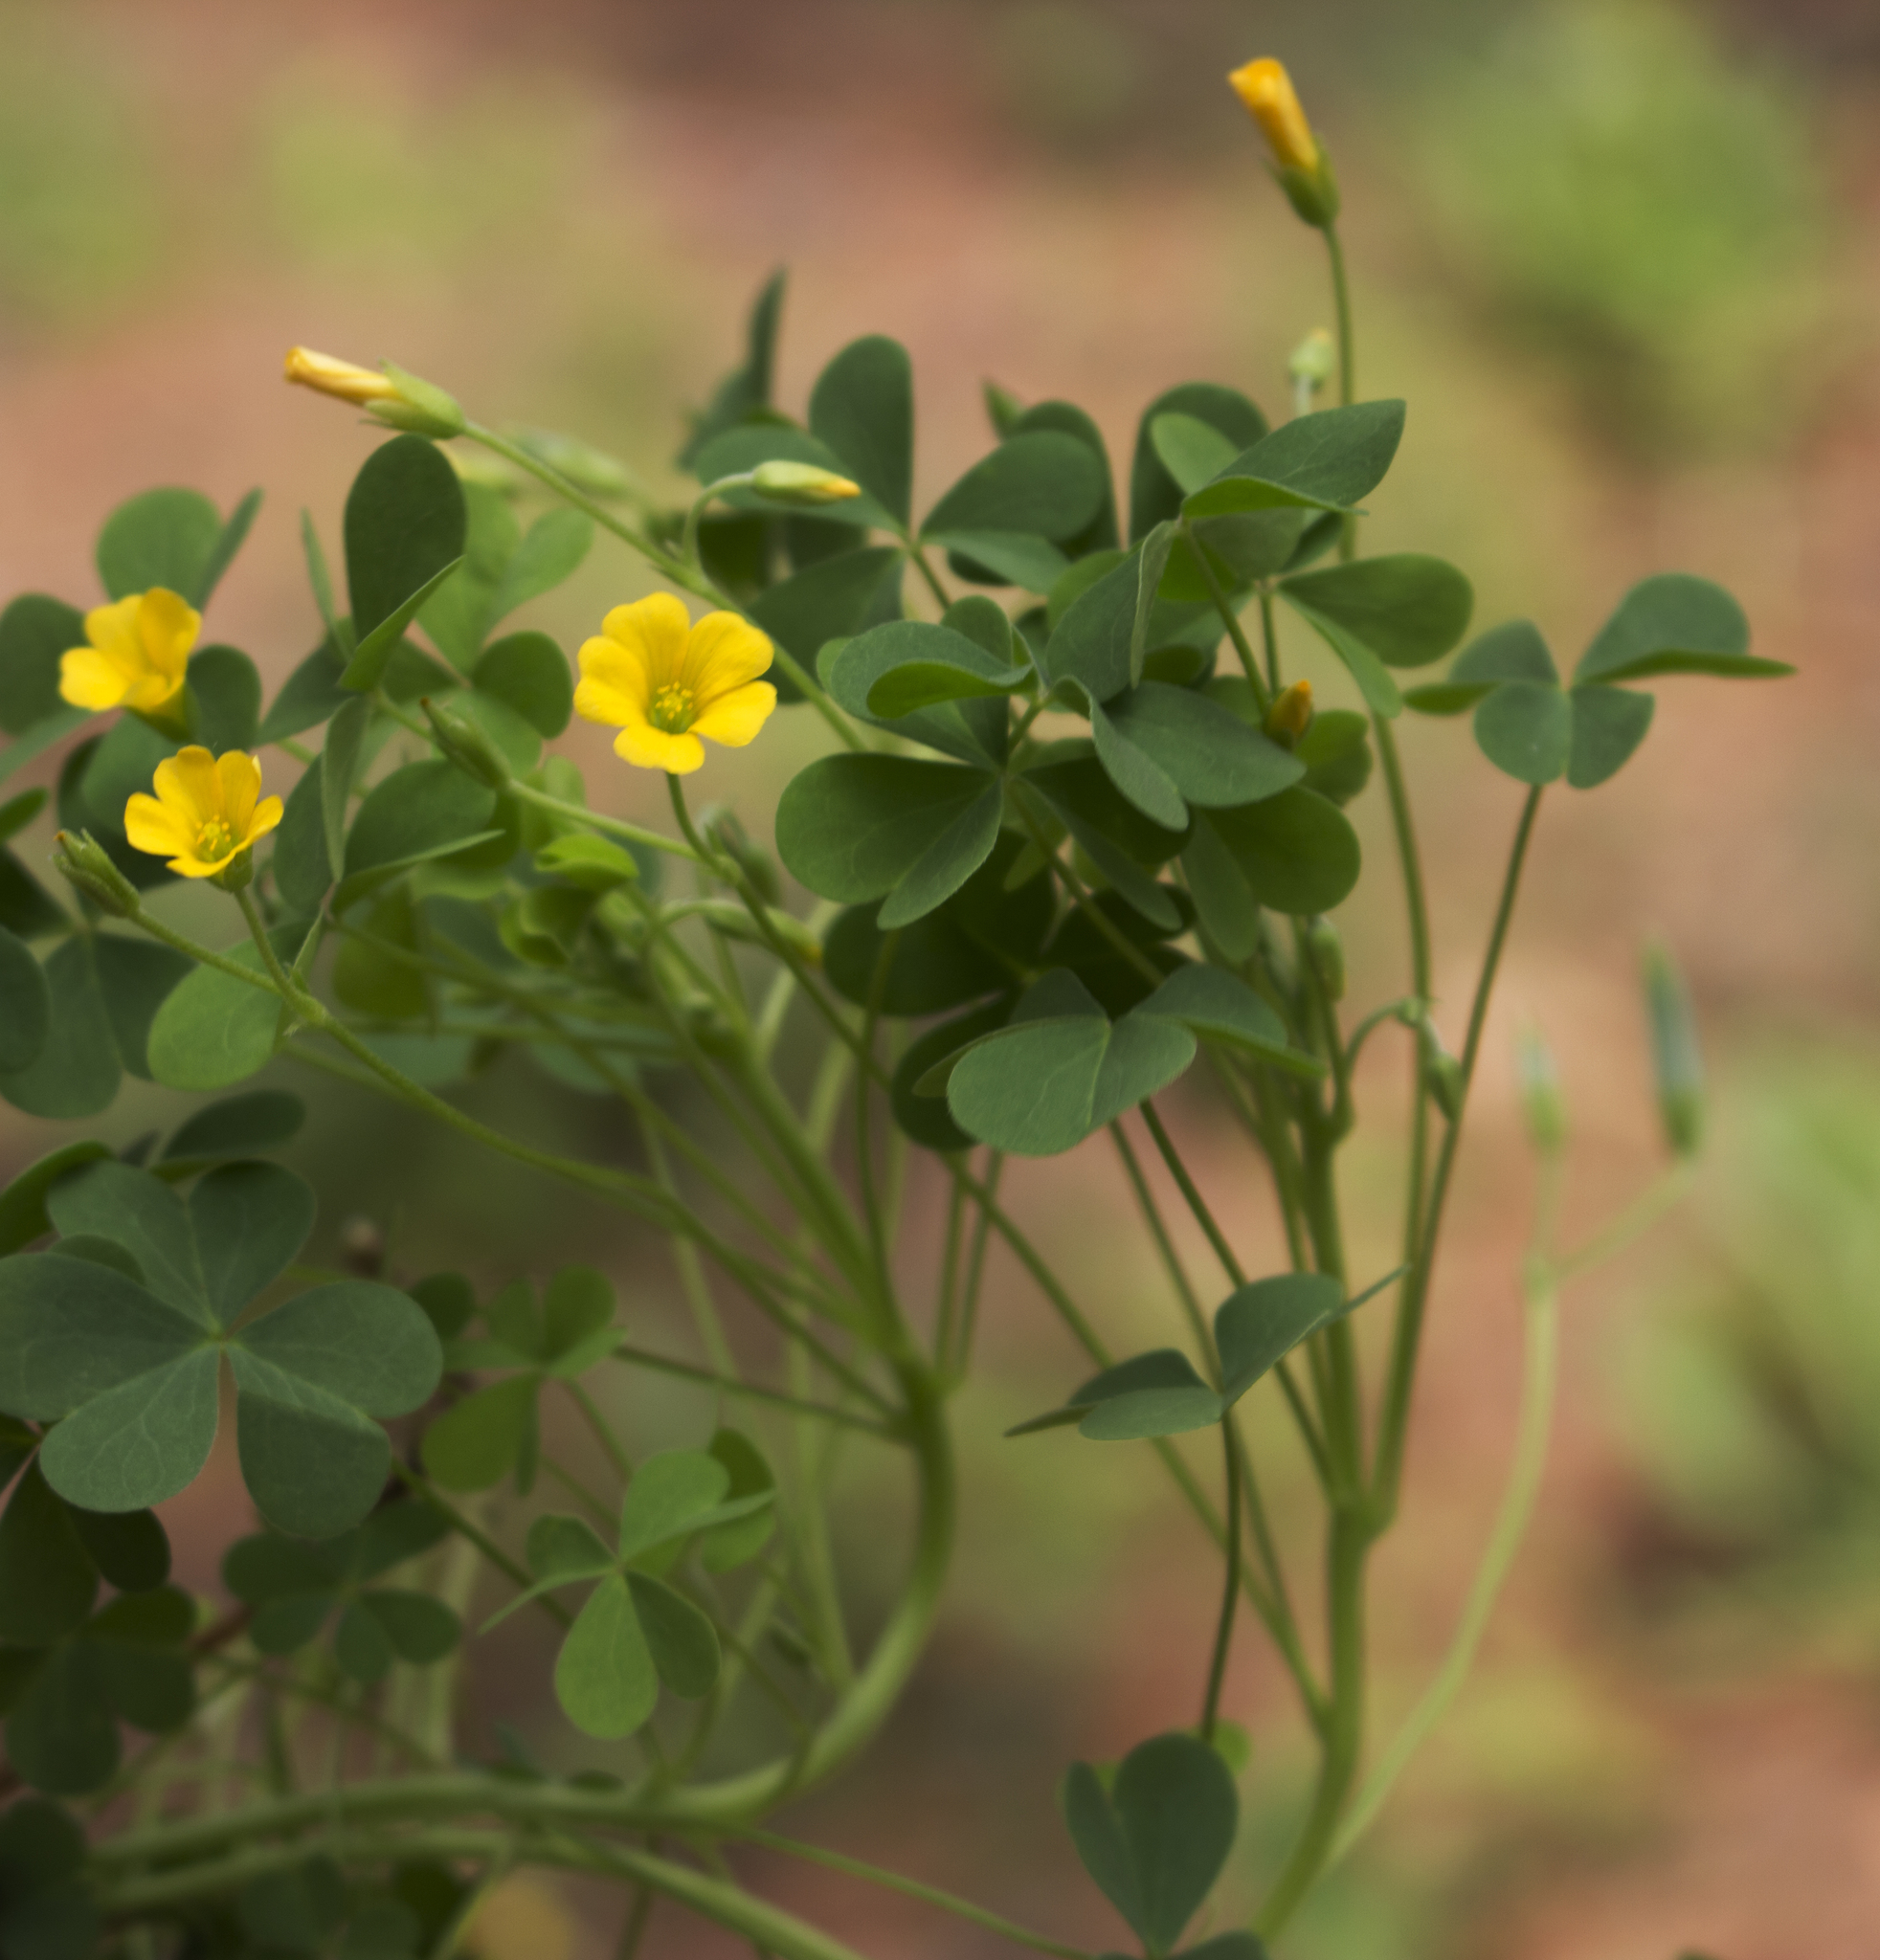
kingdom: Plantae
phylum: Tracheophyta
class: Magnoliopsida
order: Oxalidales
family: Oxalidaceae
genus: Oxalis
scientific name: Oxalis dillenii
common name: Sussex yellow-sorrel
